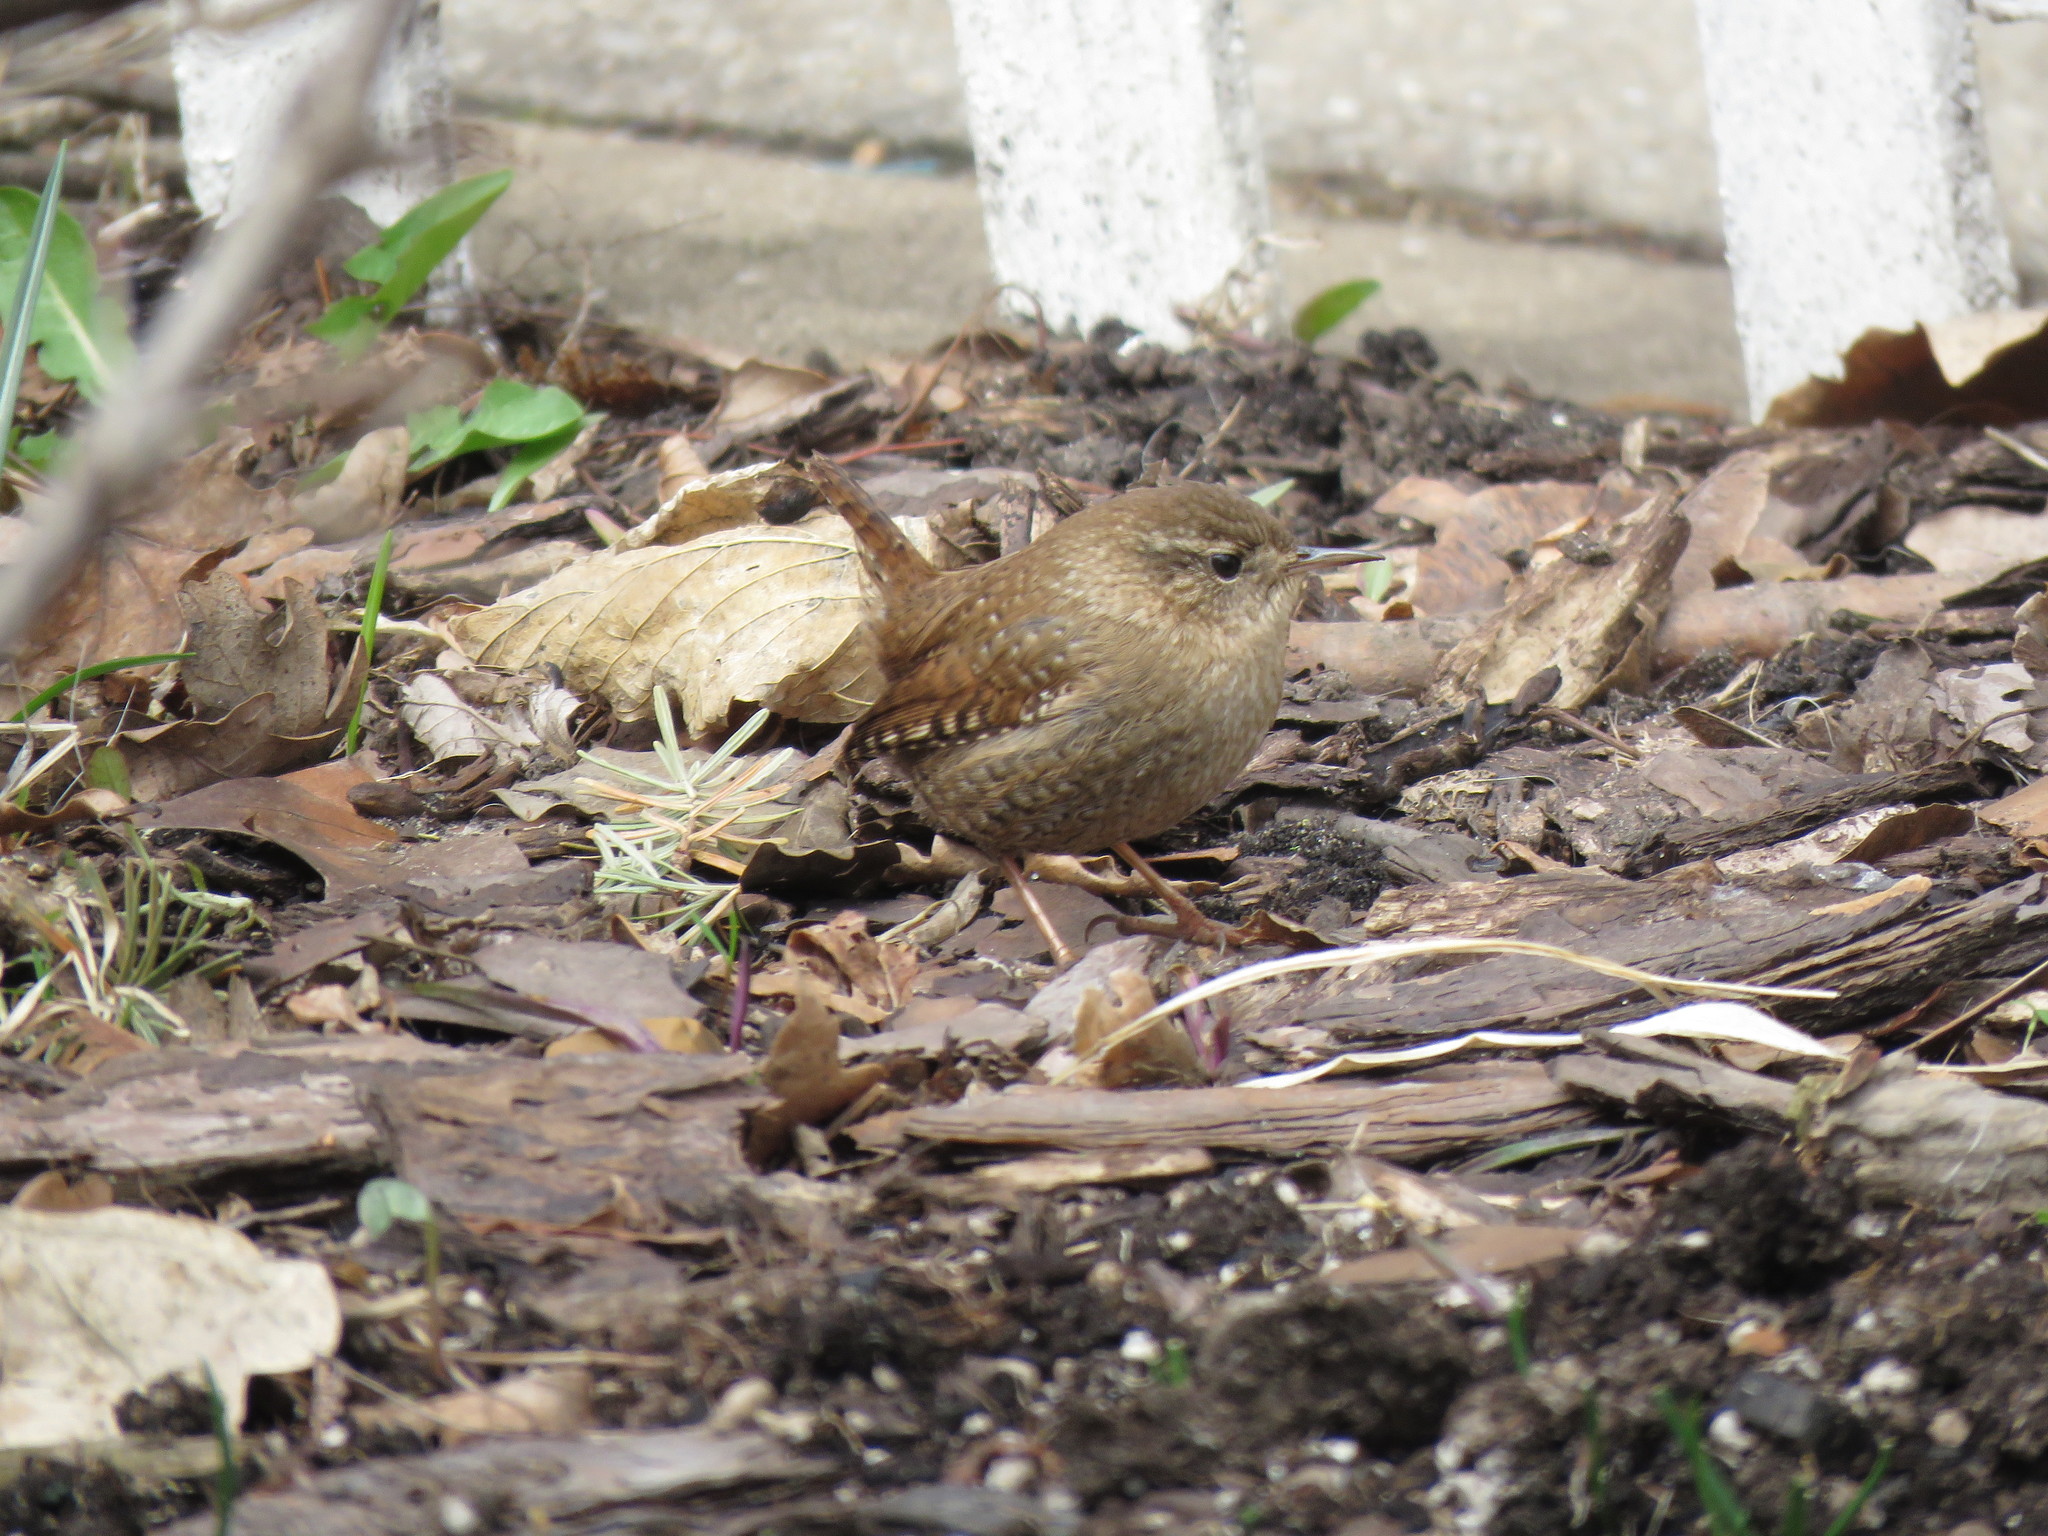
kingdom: Animalia
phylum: Chordata
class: Aves
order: Passeriformes
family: Troglodytidae
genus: Troglodytes
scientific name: Troglodytes hiemalis
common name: Winter wren
